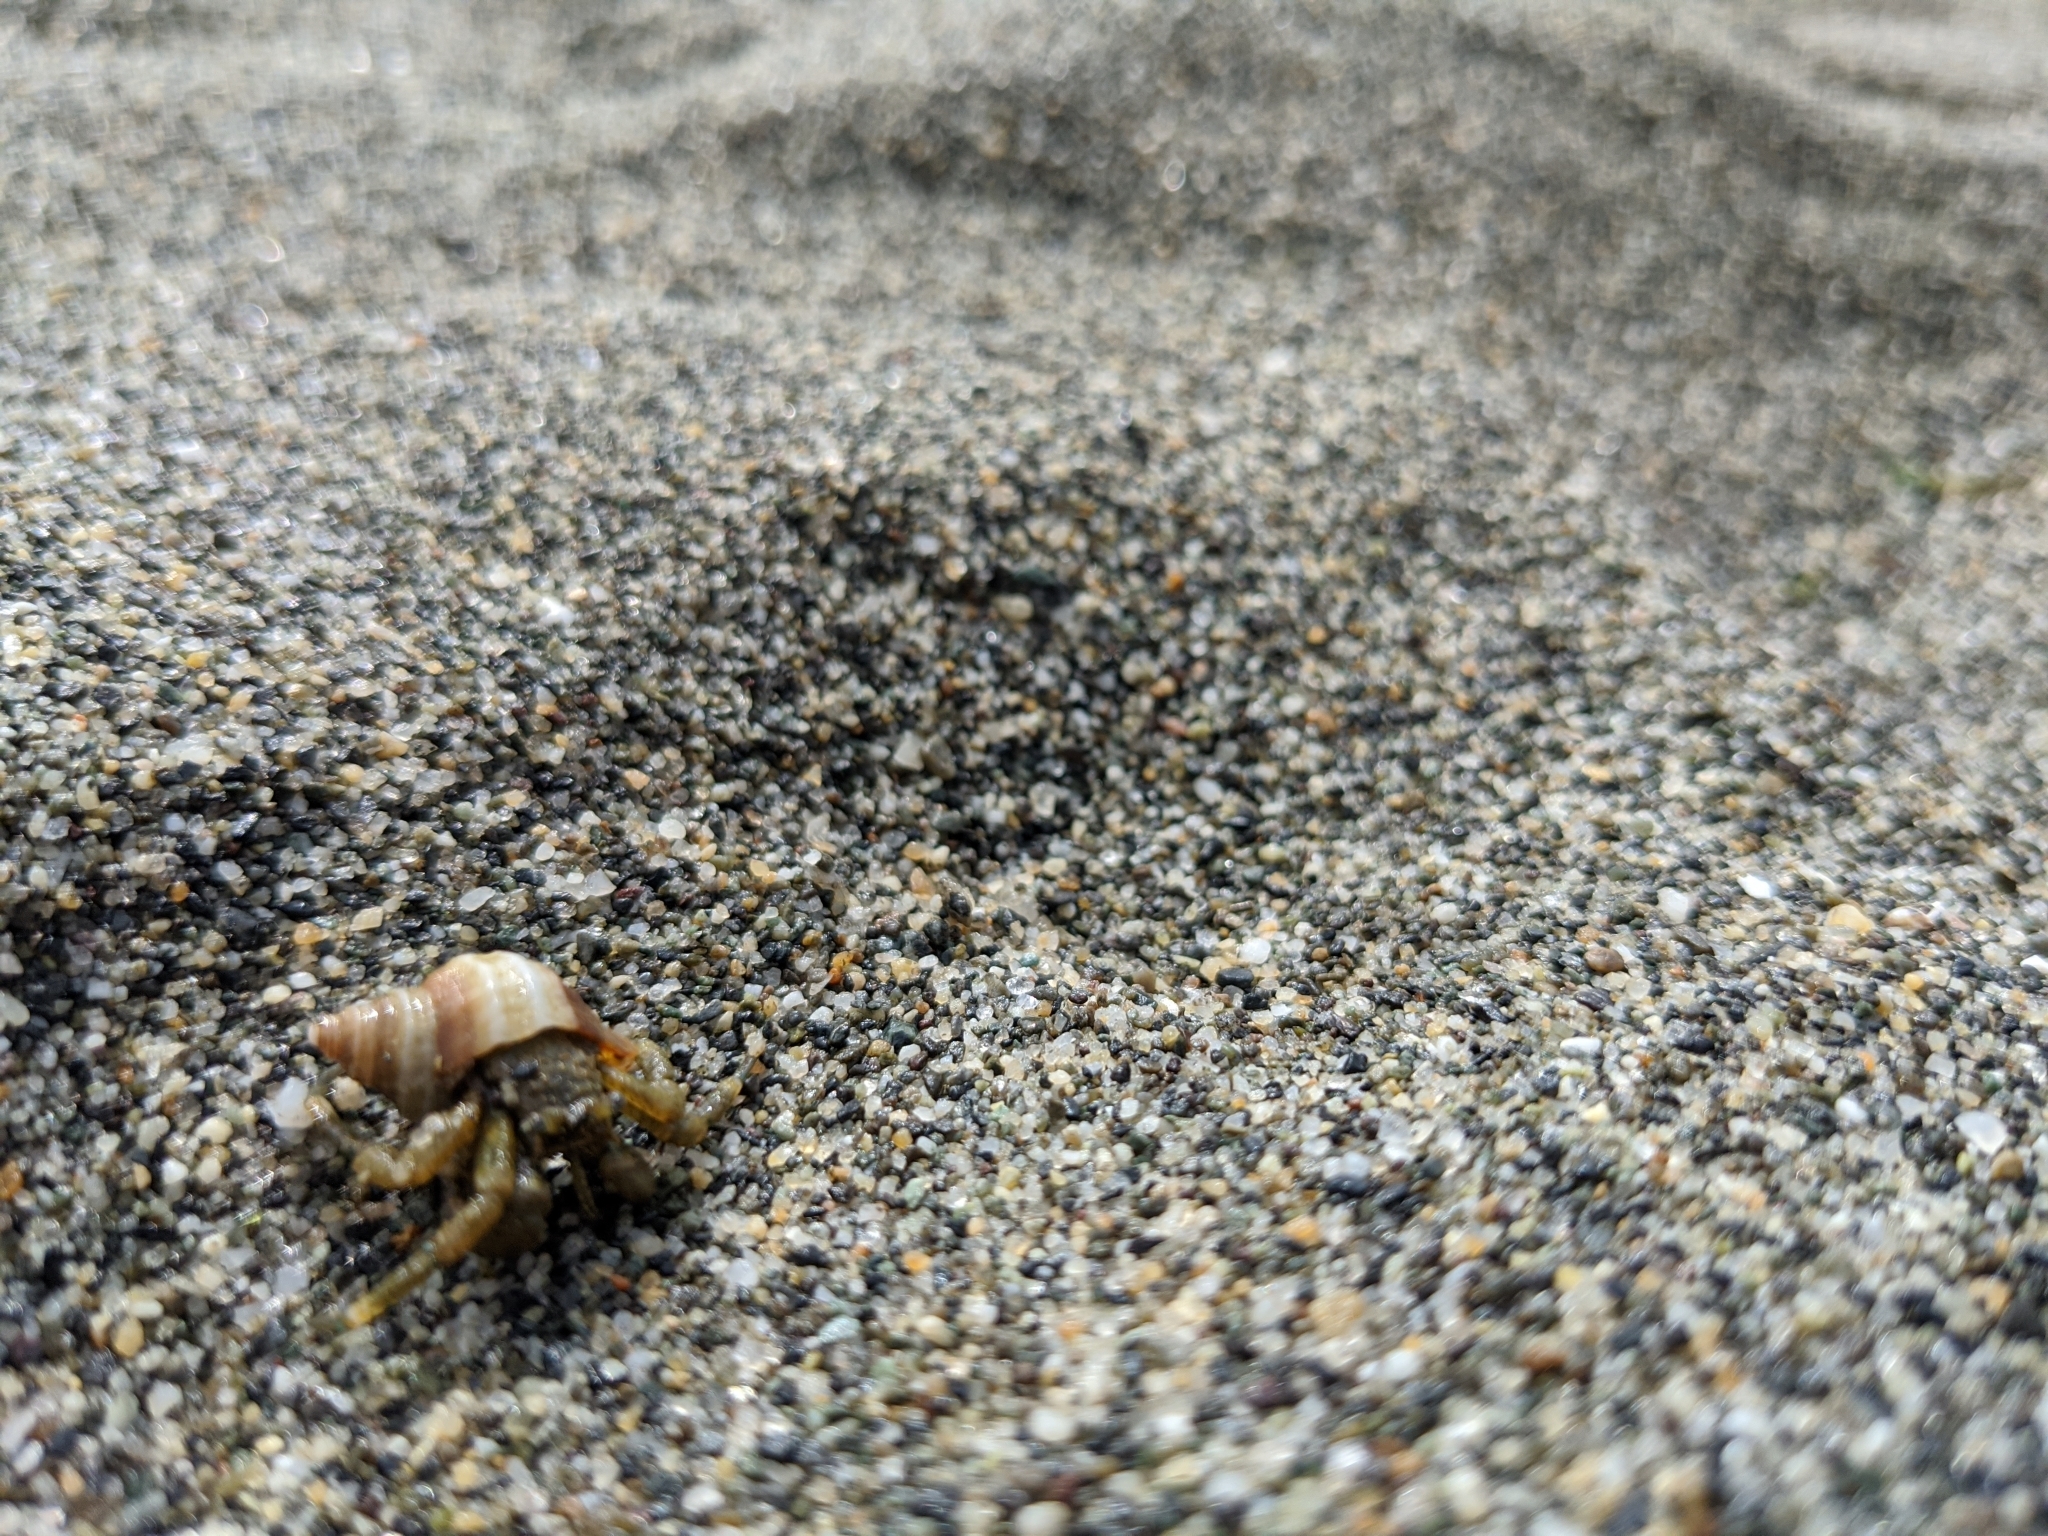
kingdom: Animalia
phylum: Arthropoda
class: Malacostraca
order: Decapoda
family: Paguridae
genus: Pagurus
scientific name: Pagurus hirsutiusculus
